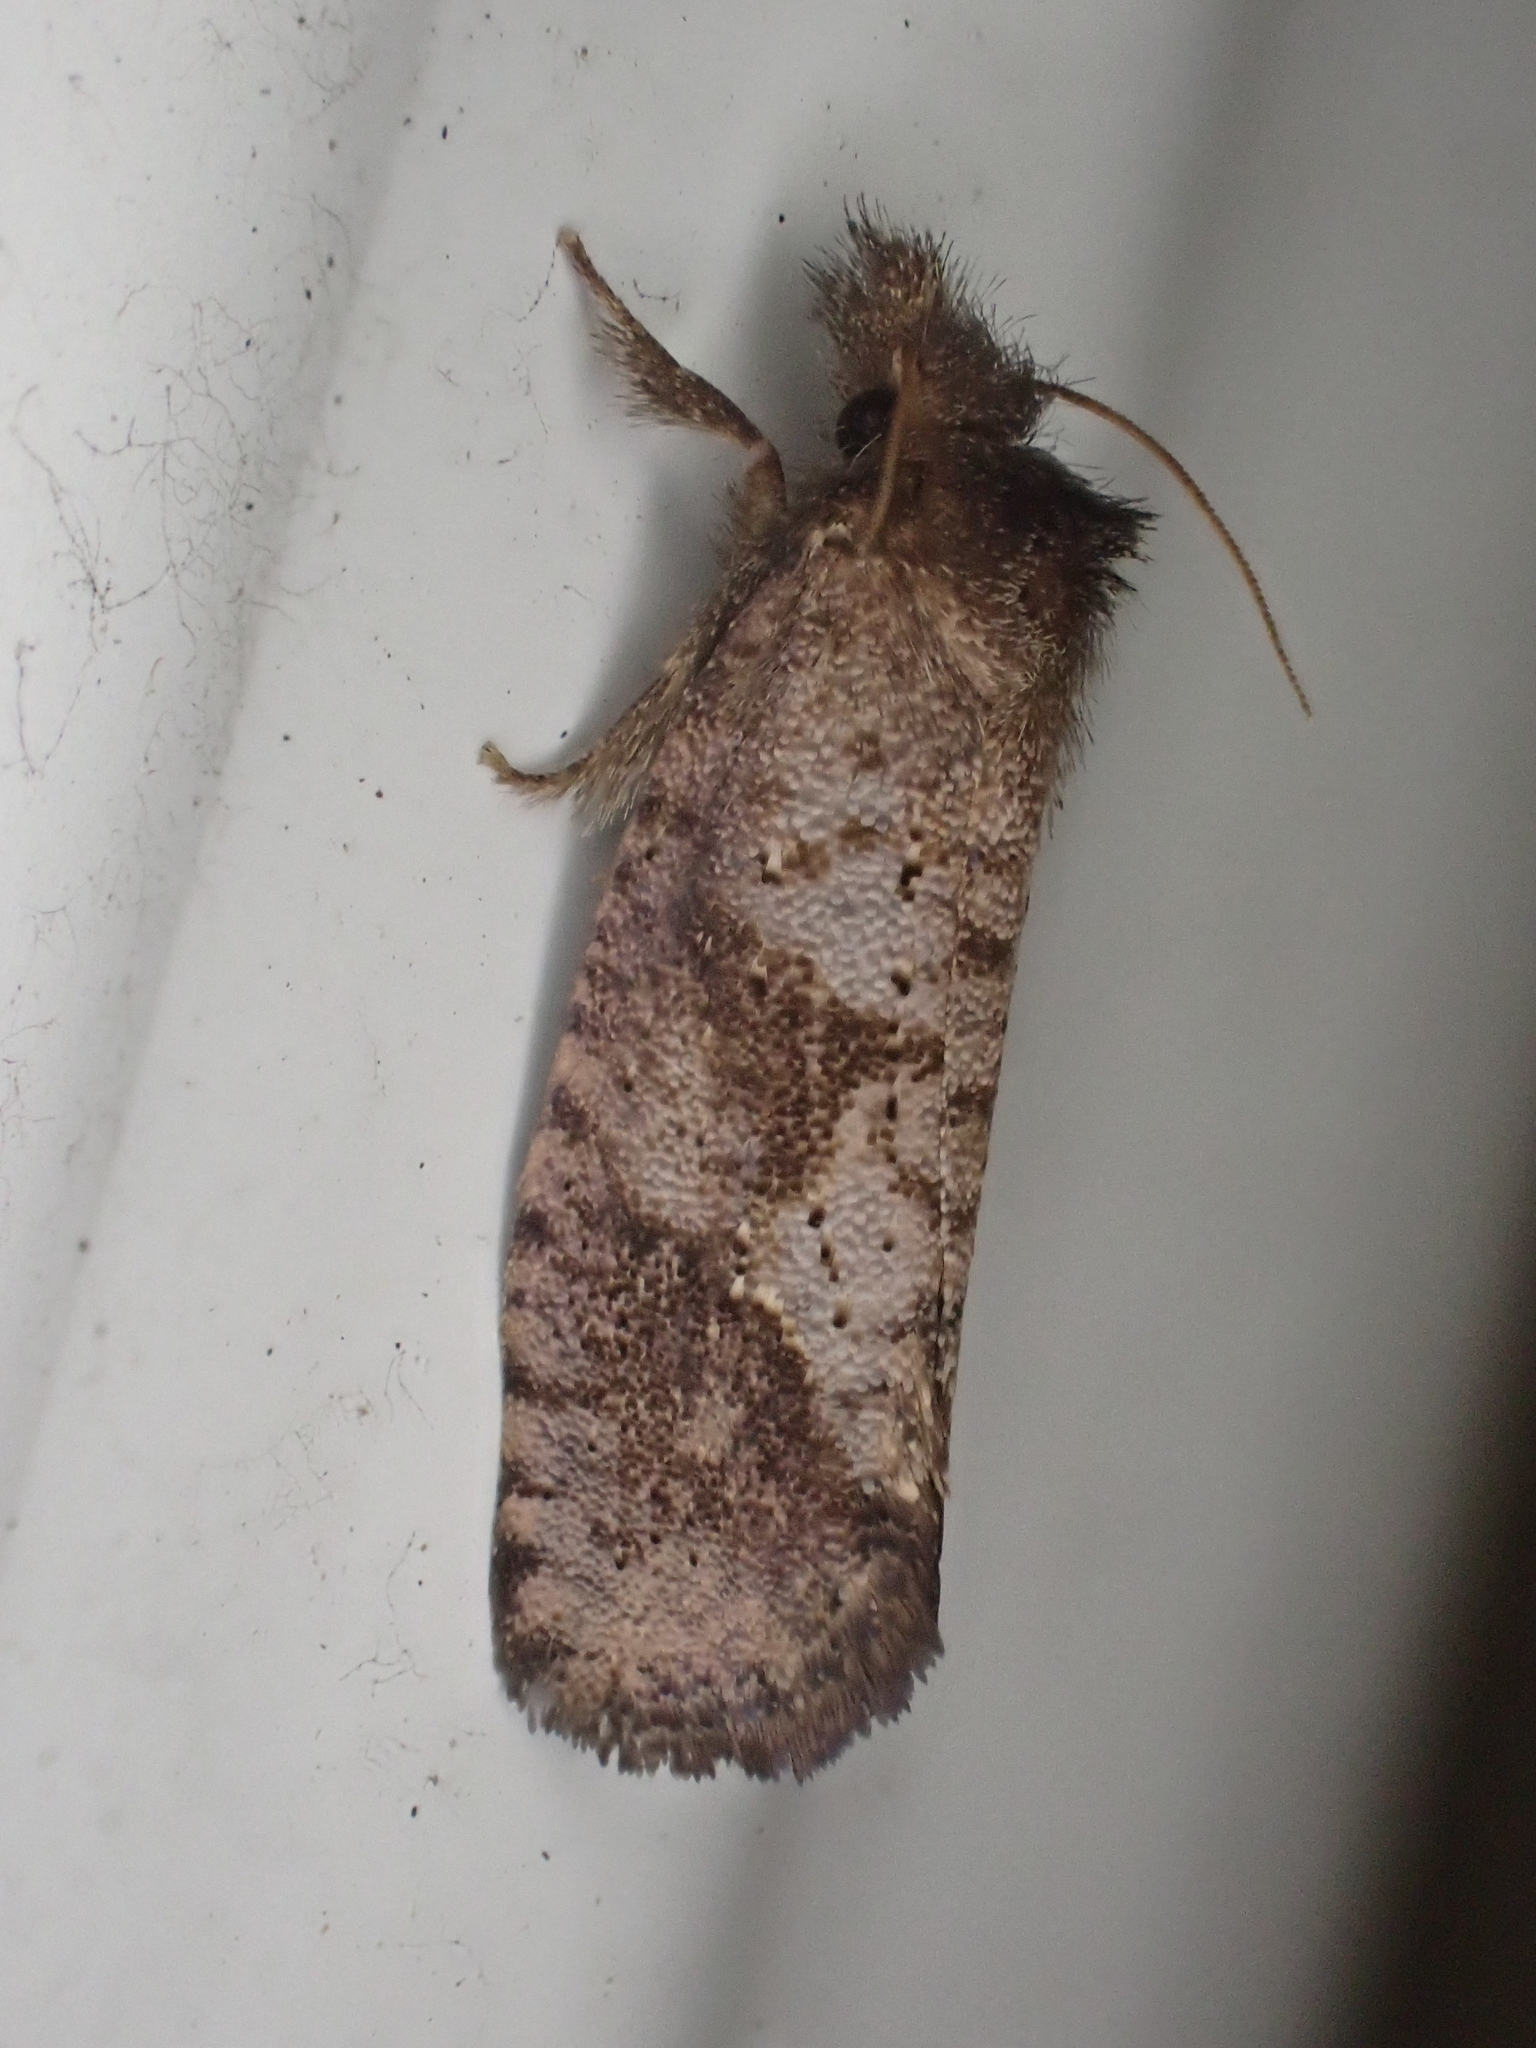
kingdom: Animalia
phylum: Arthropoda
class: Insecta
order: Lepidoptera
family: Tineidae
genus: Acrolophus
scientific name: Acrolophus texanella
